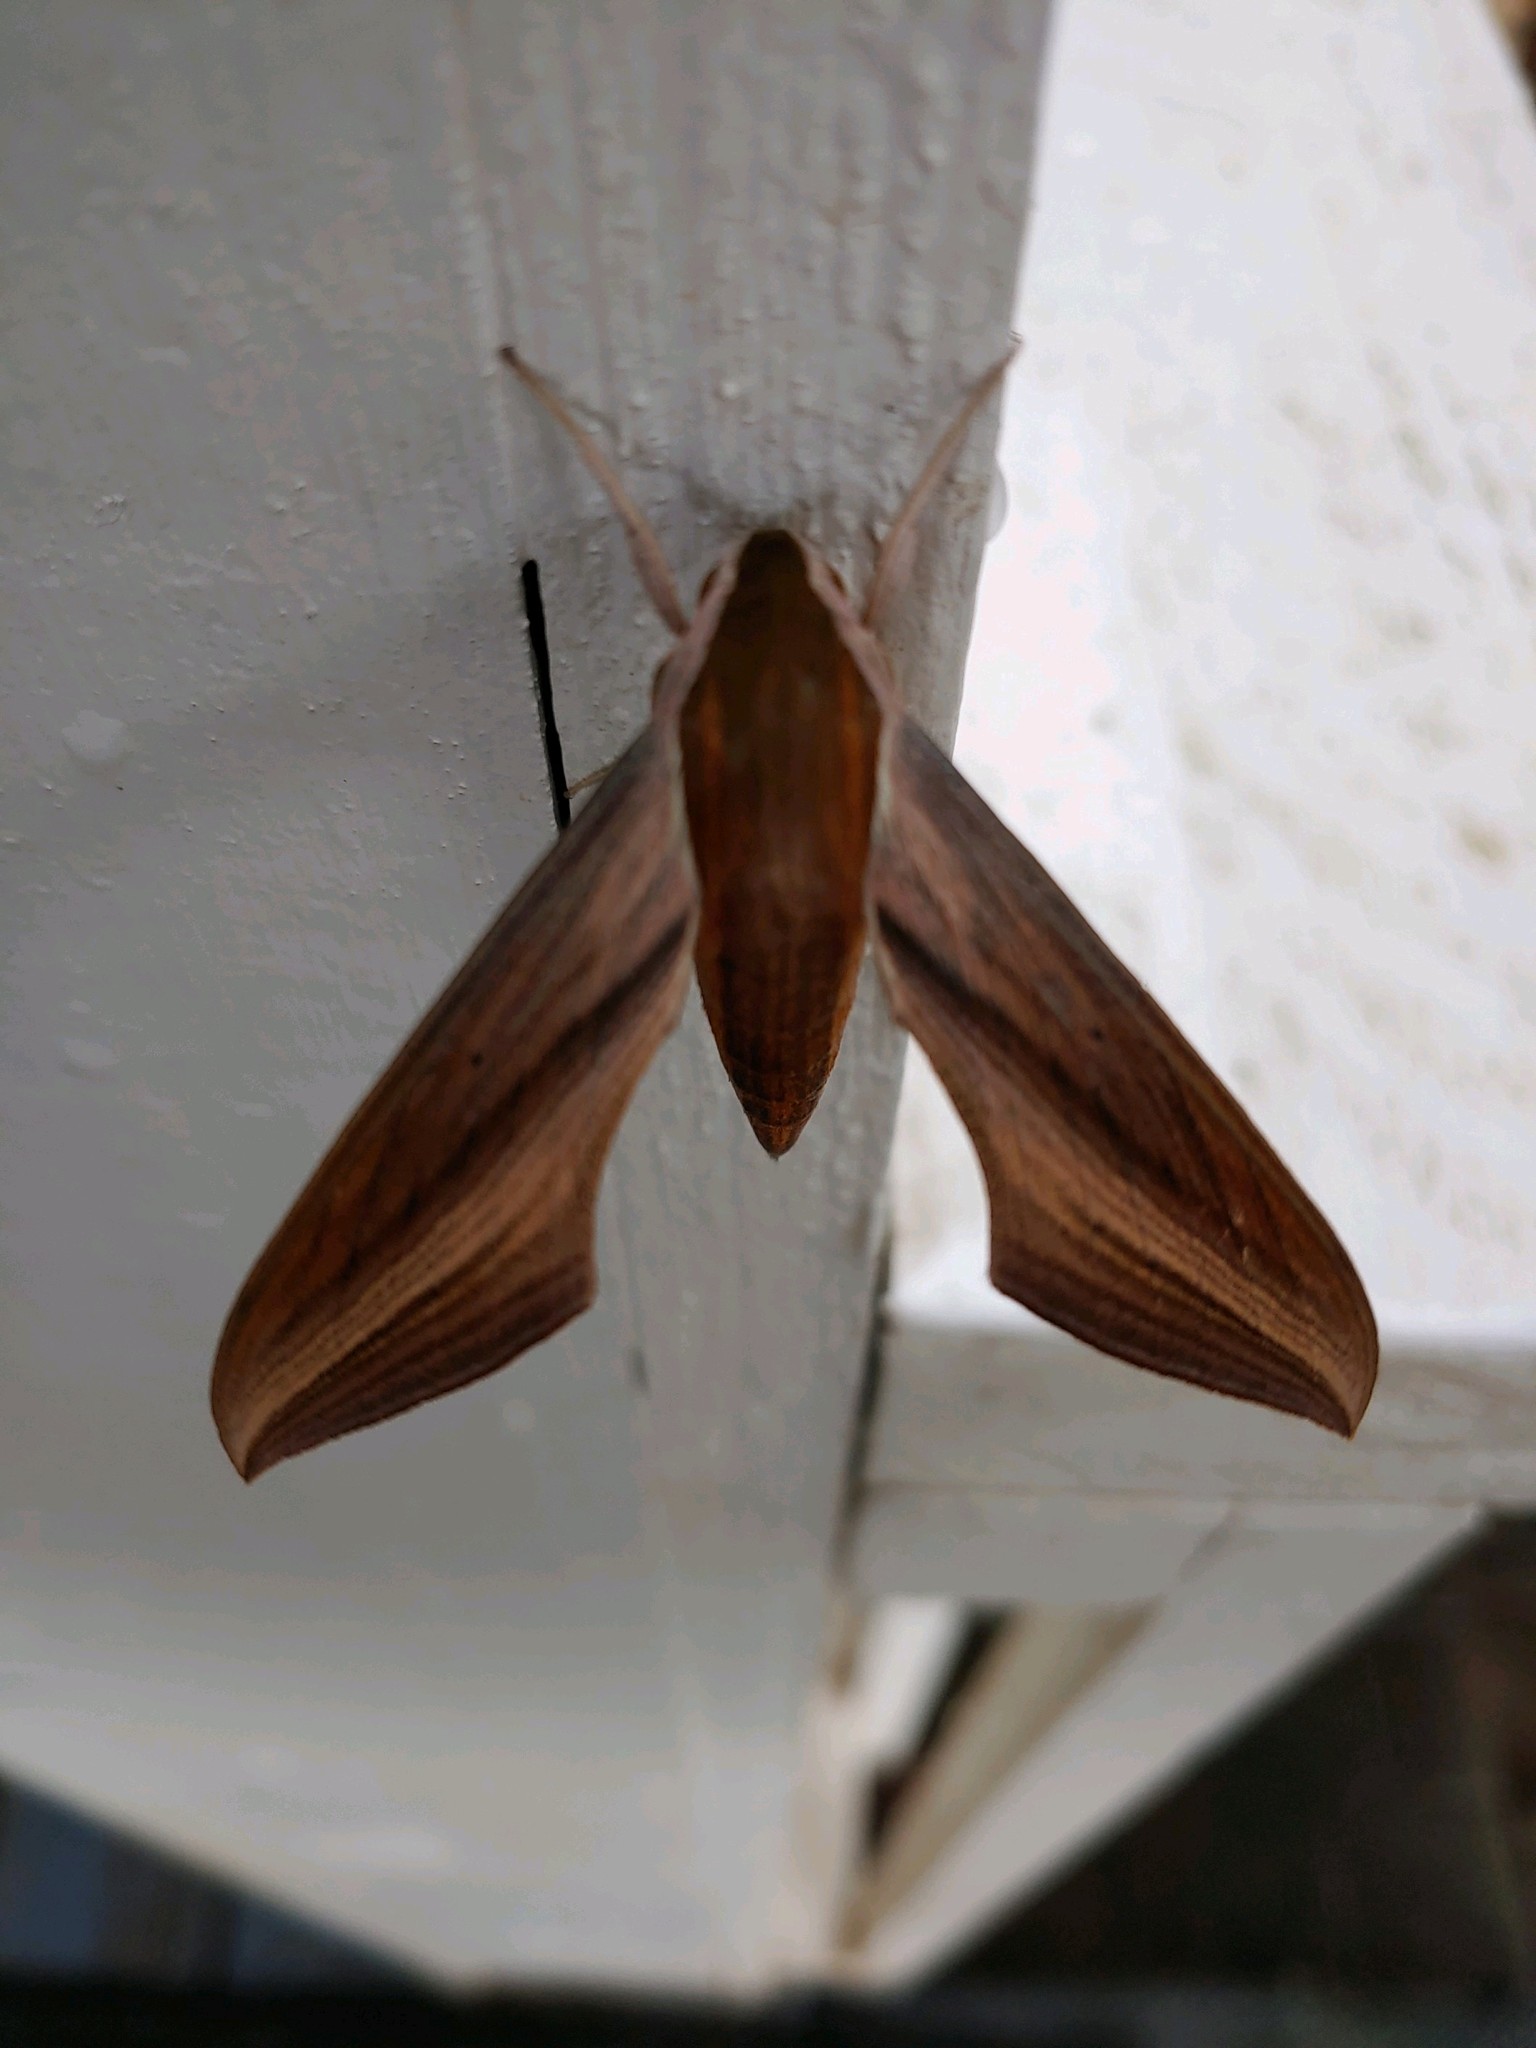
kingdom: Animalia
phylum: Arthropoda
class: Insecta
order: Lepidoptera
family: Sphingidae
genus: Xylophanes
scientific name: Xylophanes tersa
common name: Tersa sphinx
